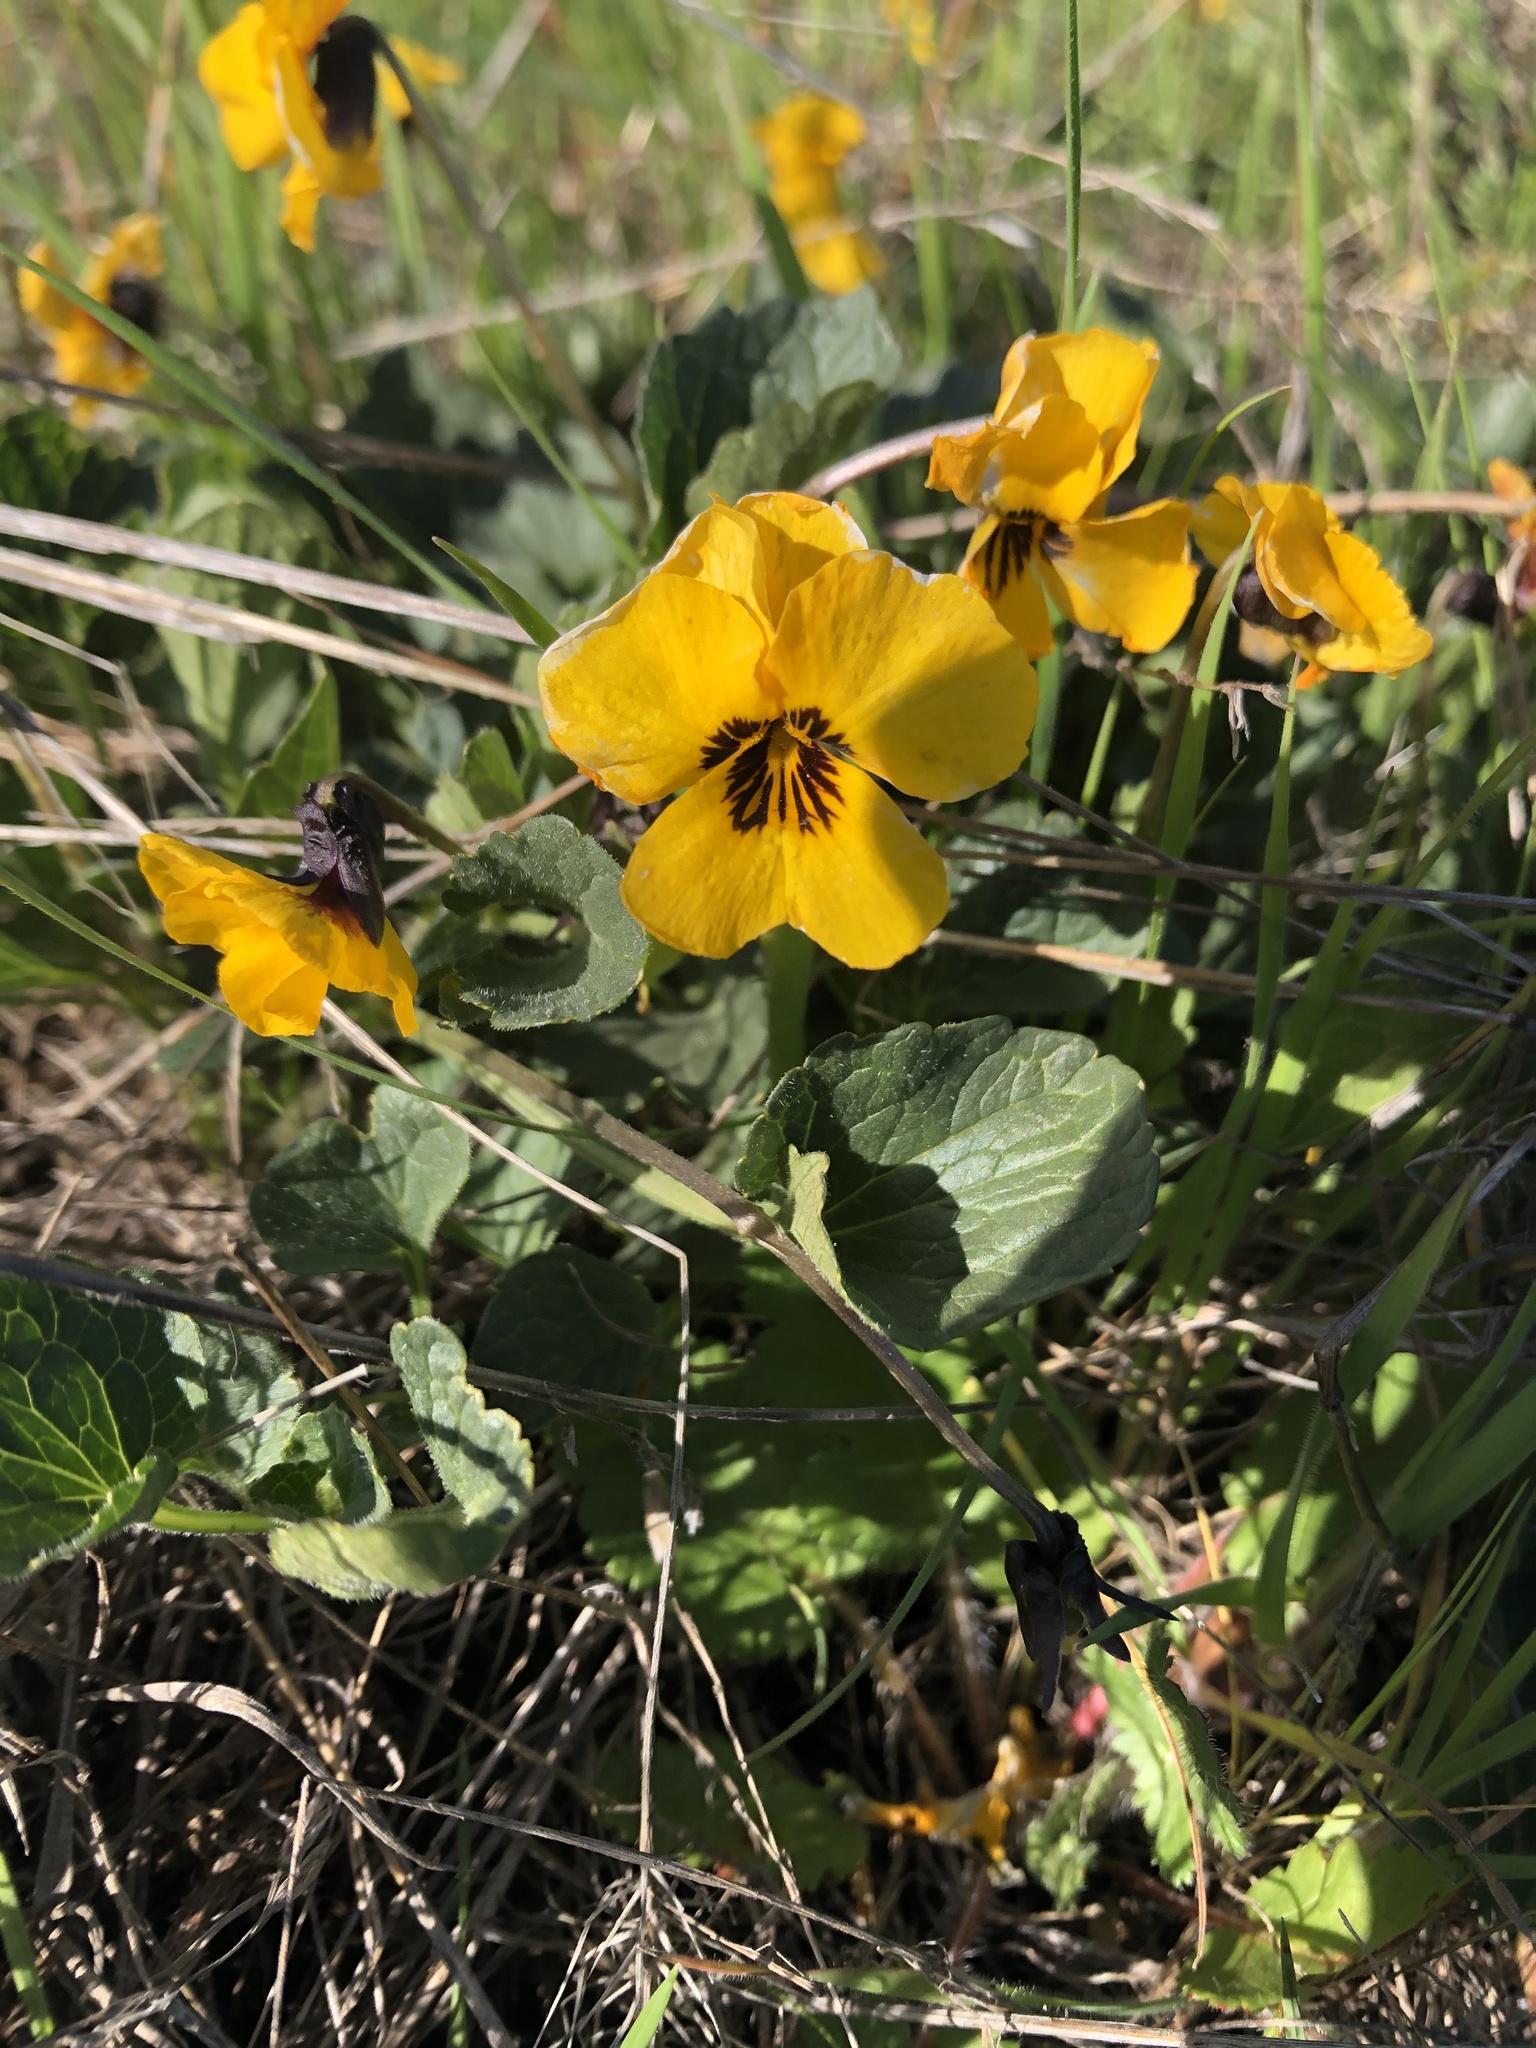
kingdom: Plantae
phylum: Tracheophyta
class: Magnoliopsida
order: Malpighiales
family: Violaceae
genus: Viola
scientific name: Viola pedunculata
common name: California golden violet
